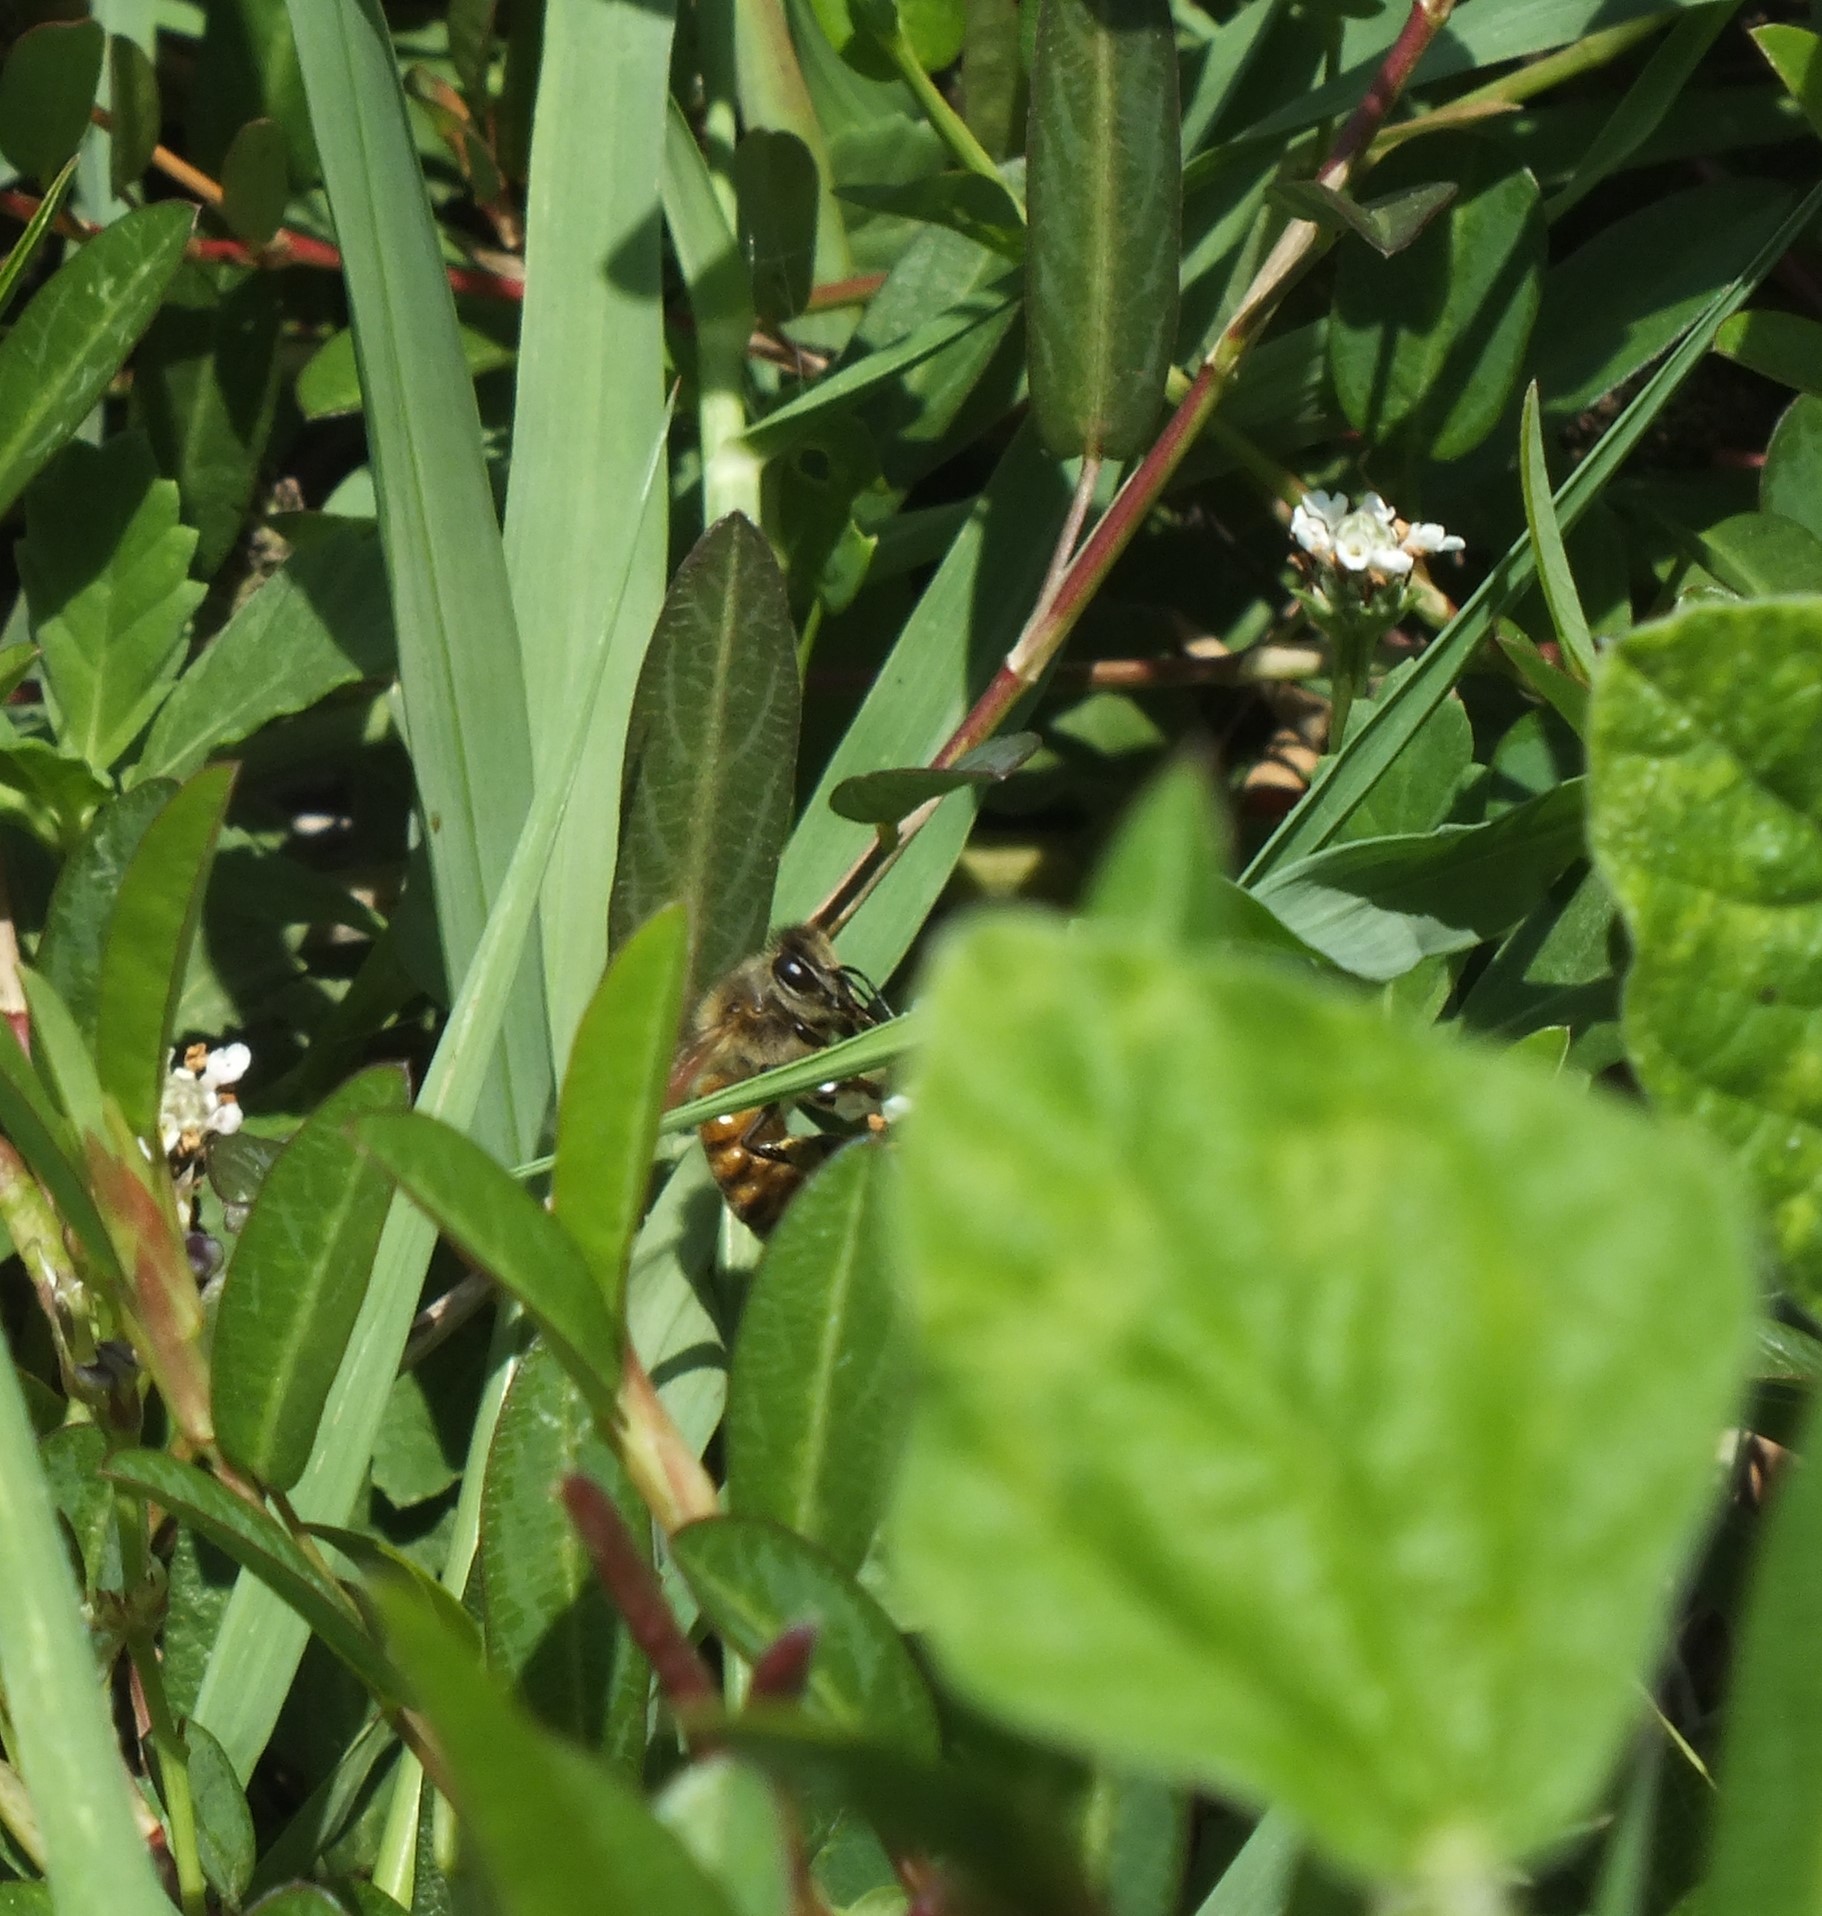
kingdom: Animalia
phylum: Arthropoda
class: Insecta
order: Hymenoptera
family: Apidae
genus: Apis
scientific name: Apis mellifera
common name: Honey bee
